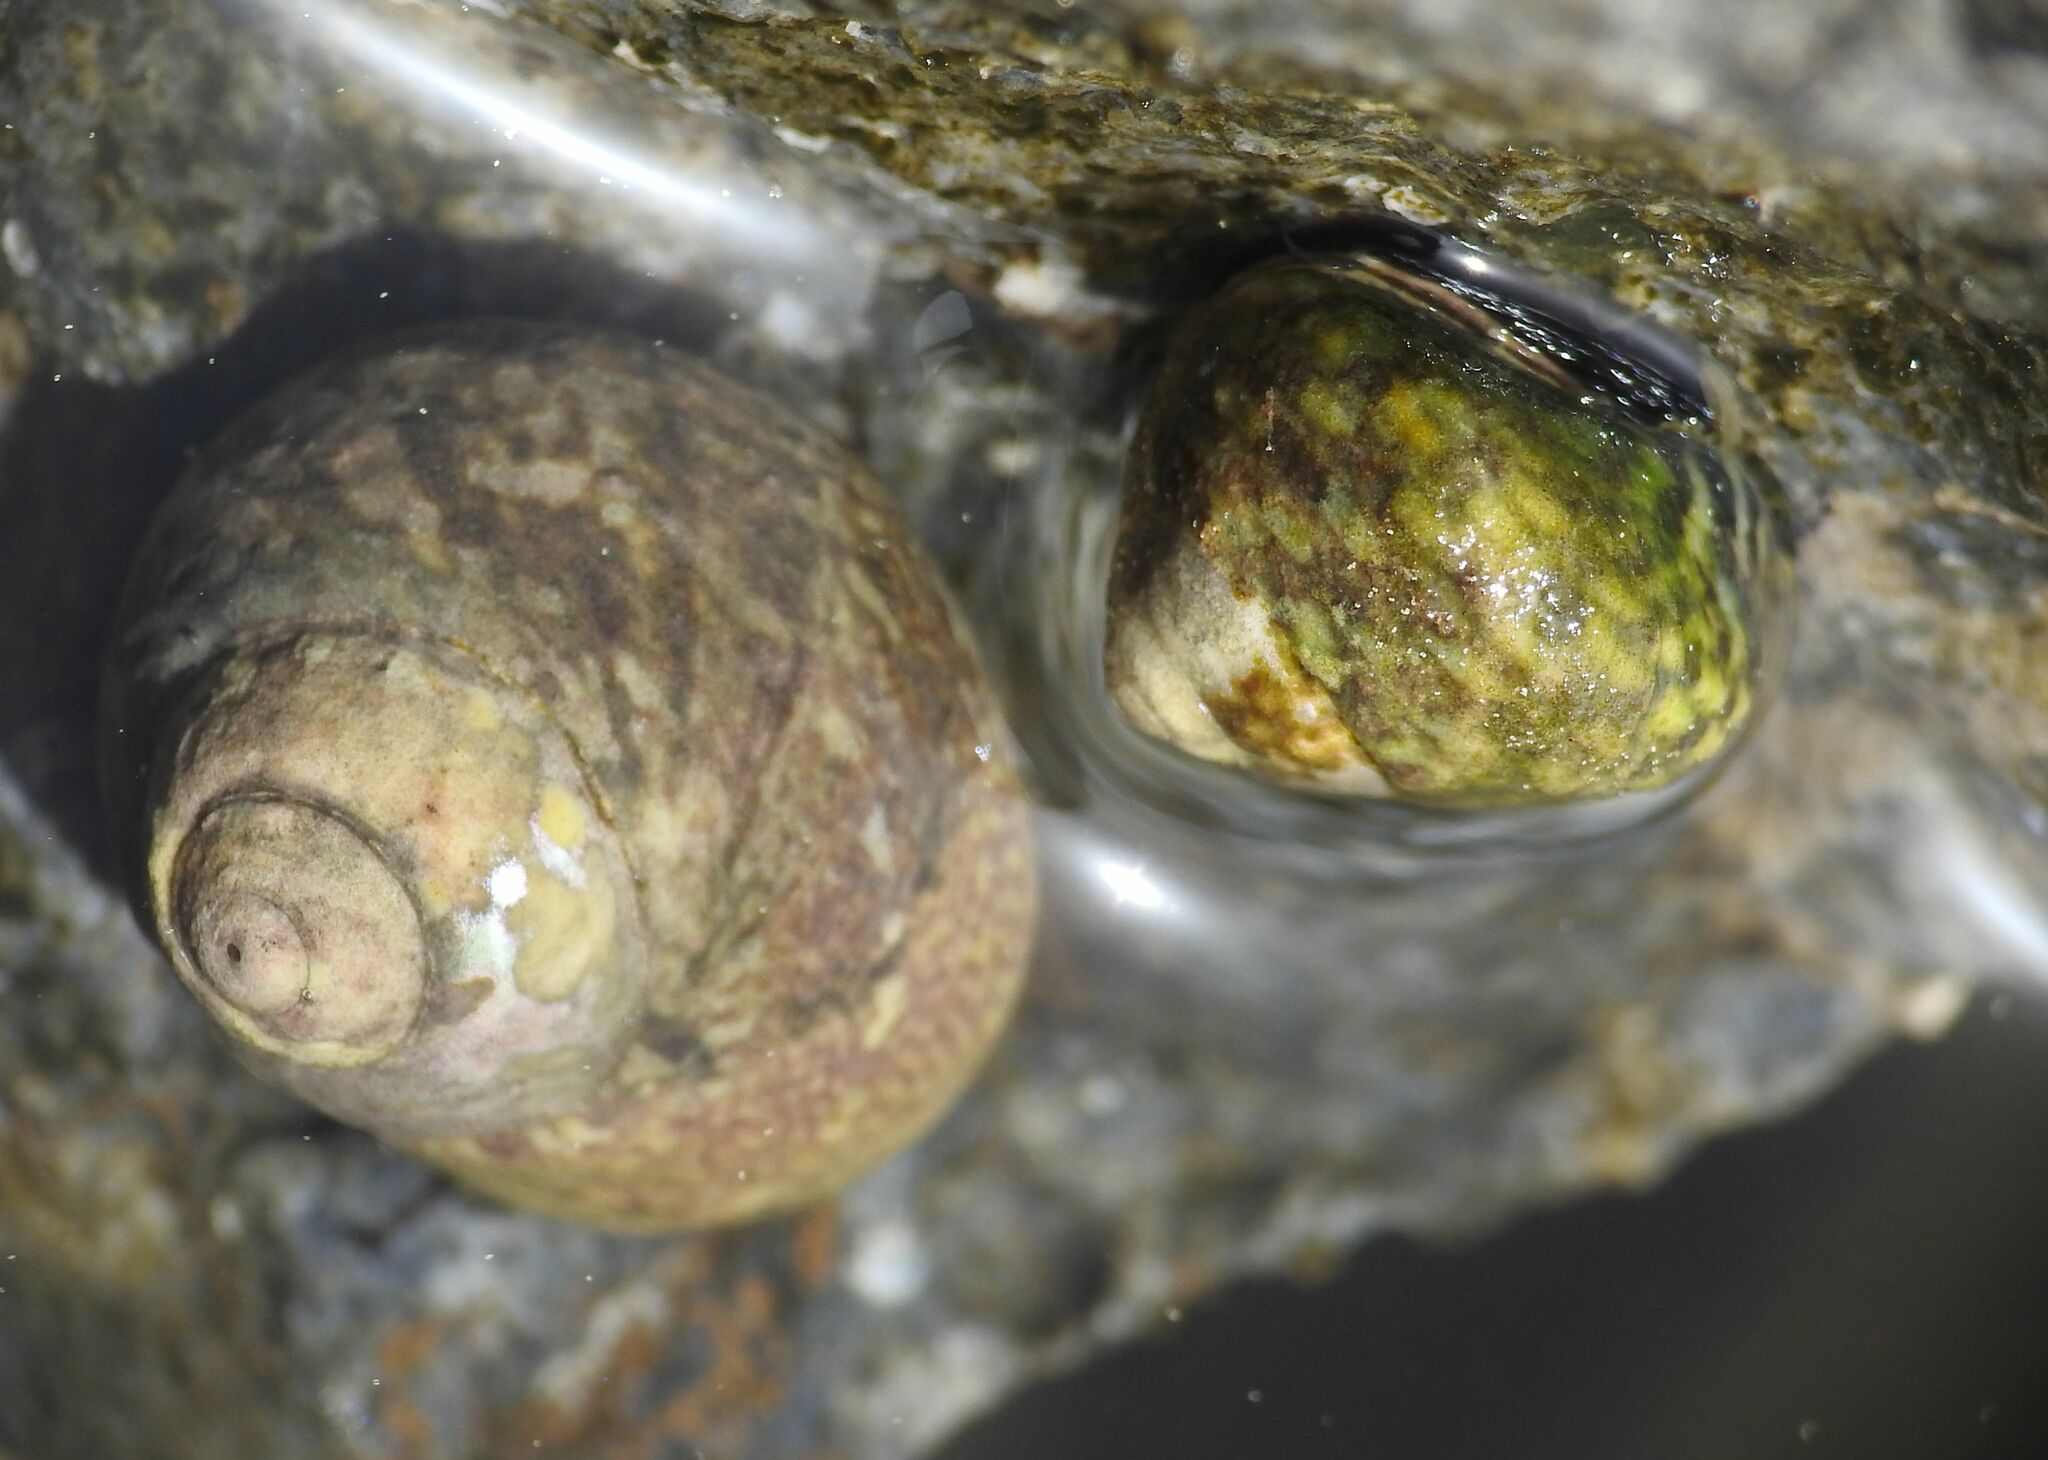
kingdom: Animalia
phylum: Mollusca
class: Gastropoda
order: Trochida
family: Trochidae
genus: Phorcus
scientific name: Phorcus articulatus
